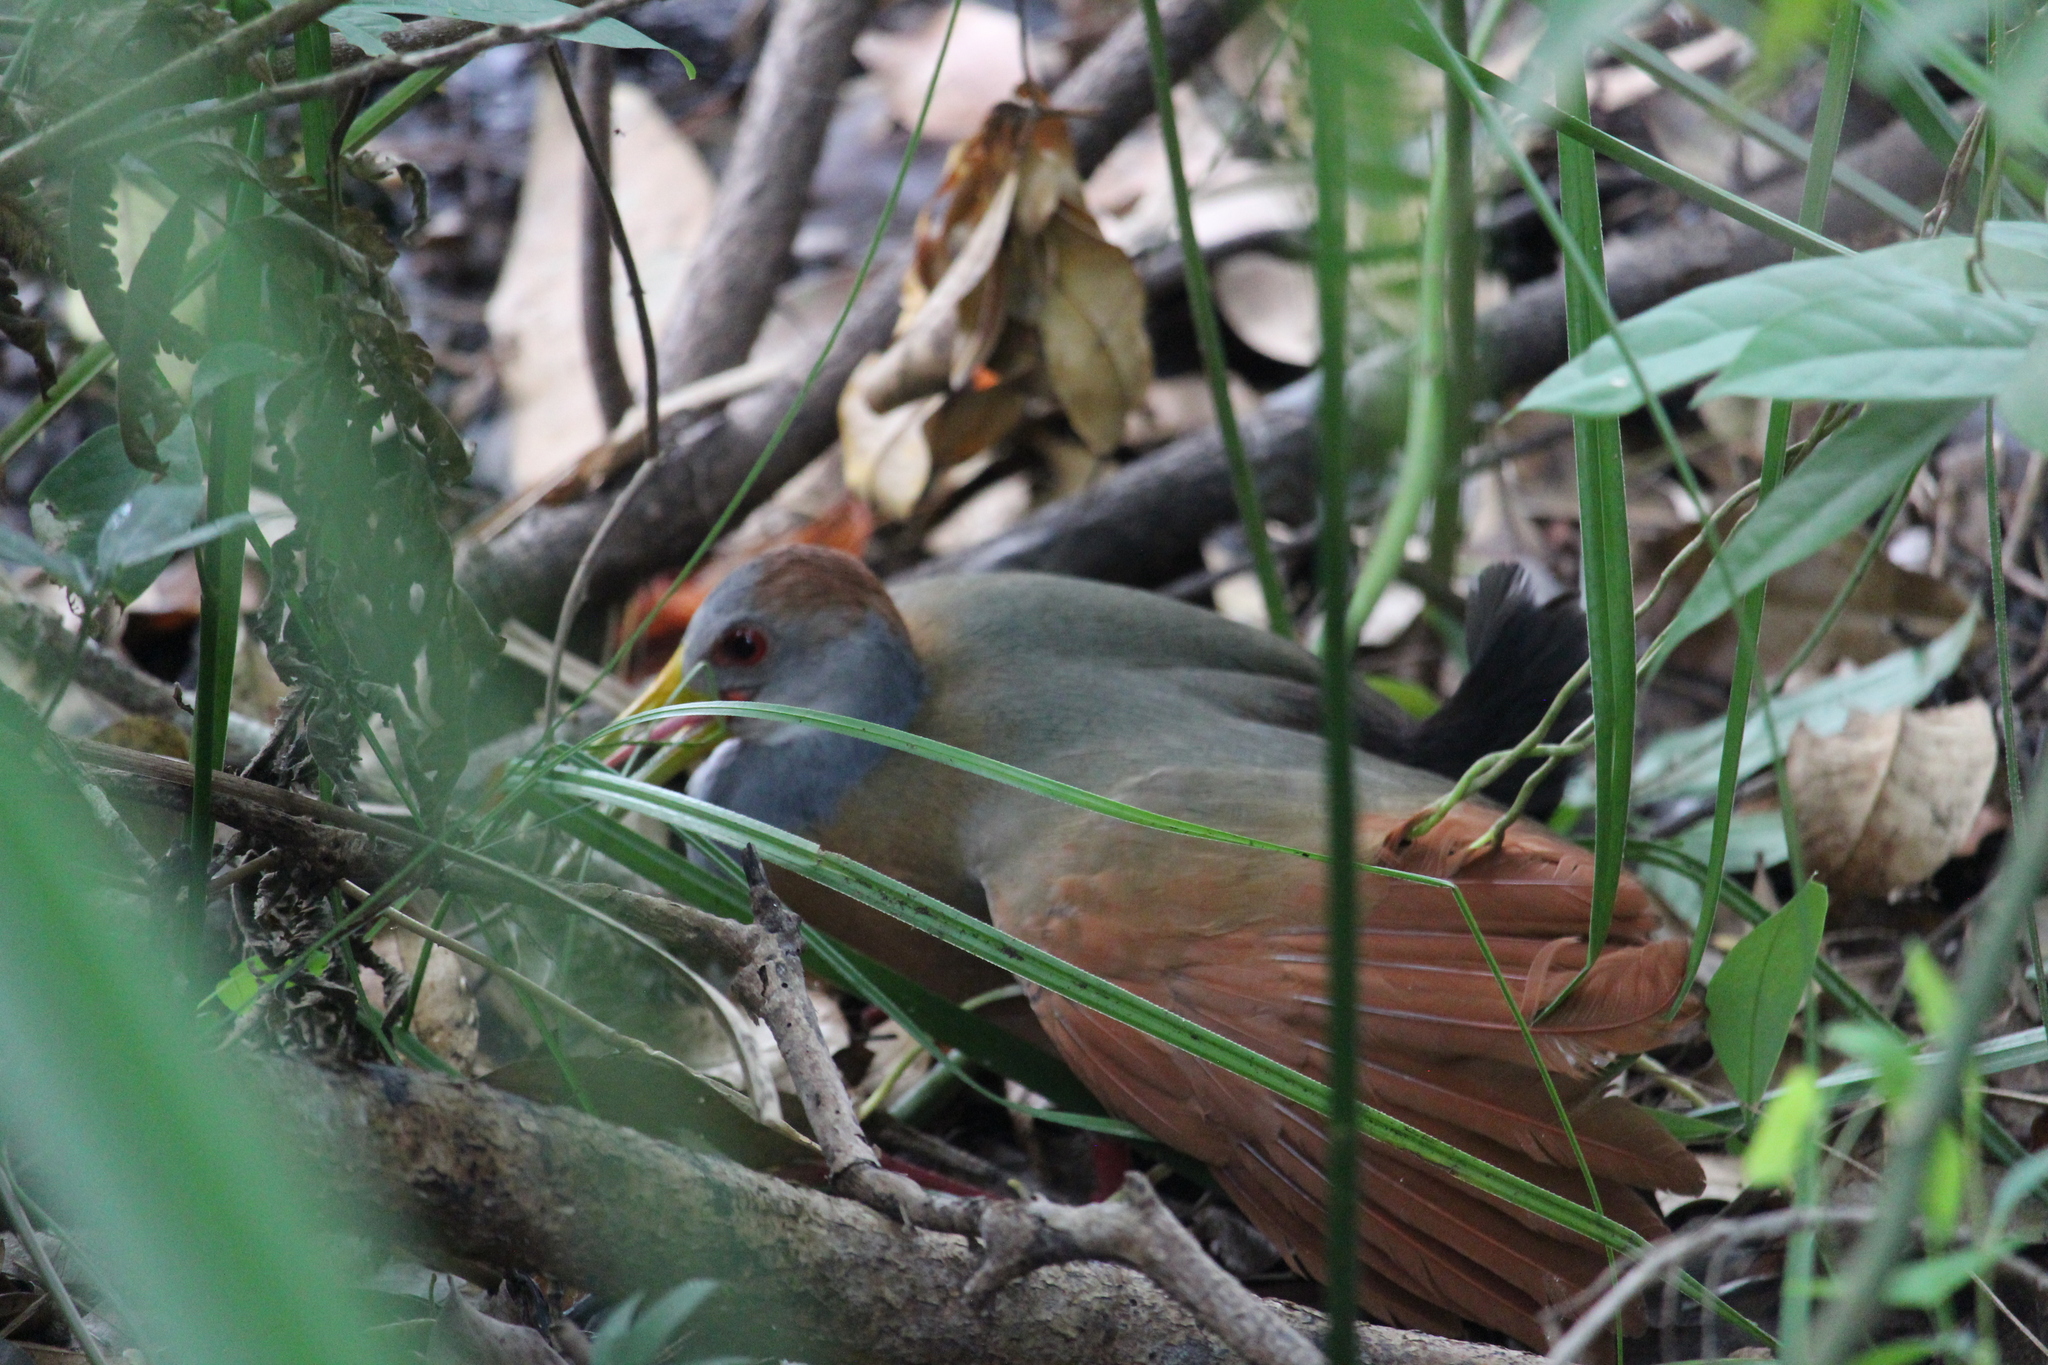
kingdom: Animalia
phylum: Chordata
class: Aves
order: Gruiformes
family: Rallidae
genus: Aramides
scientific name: Aramides albiventris
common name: Russet-naped wood-rail
